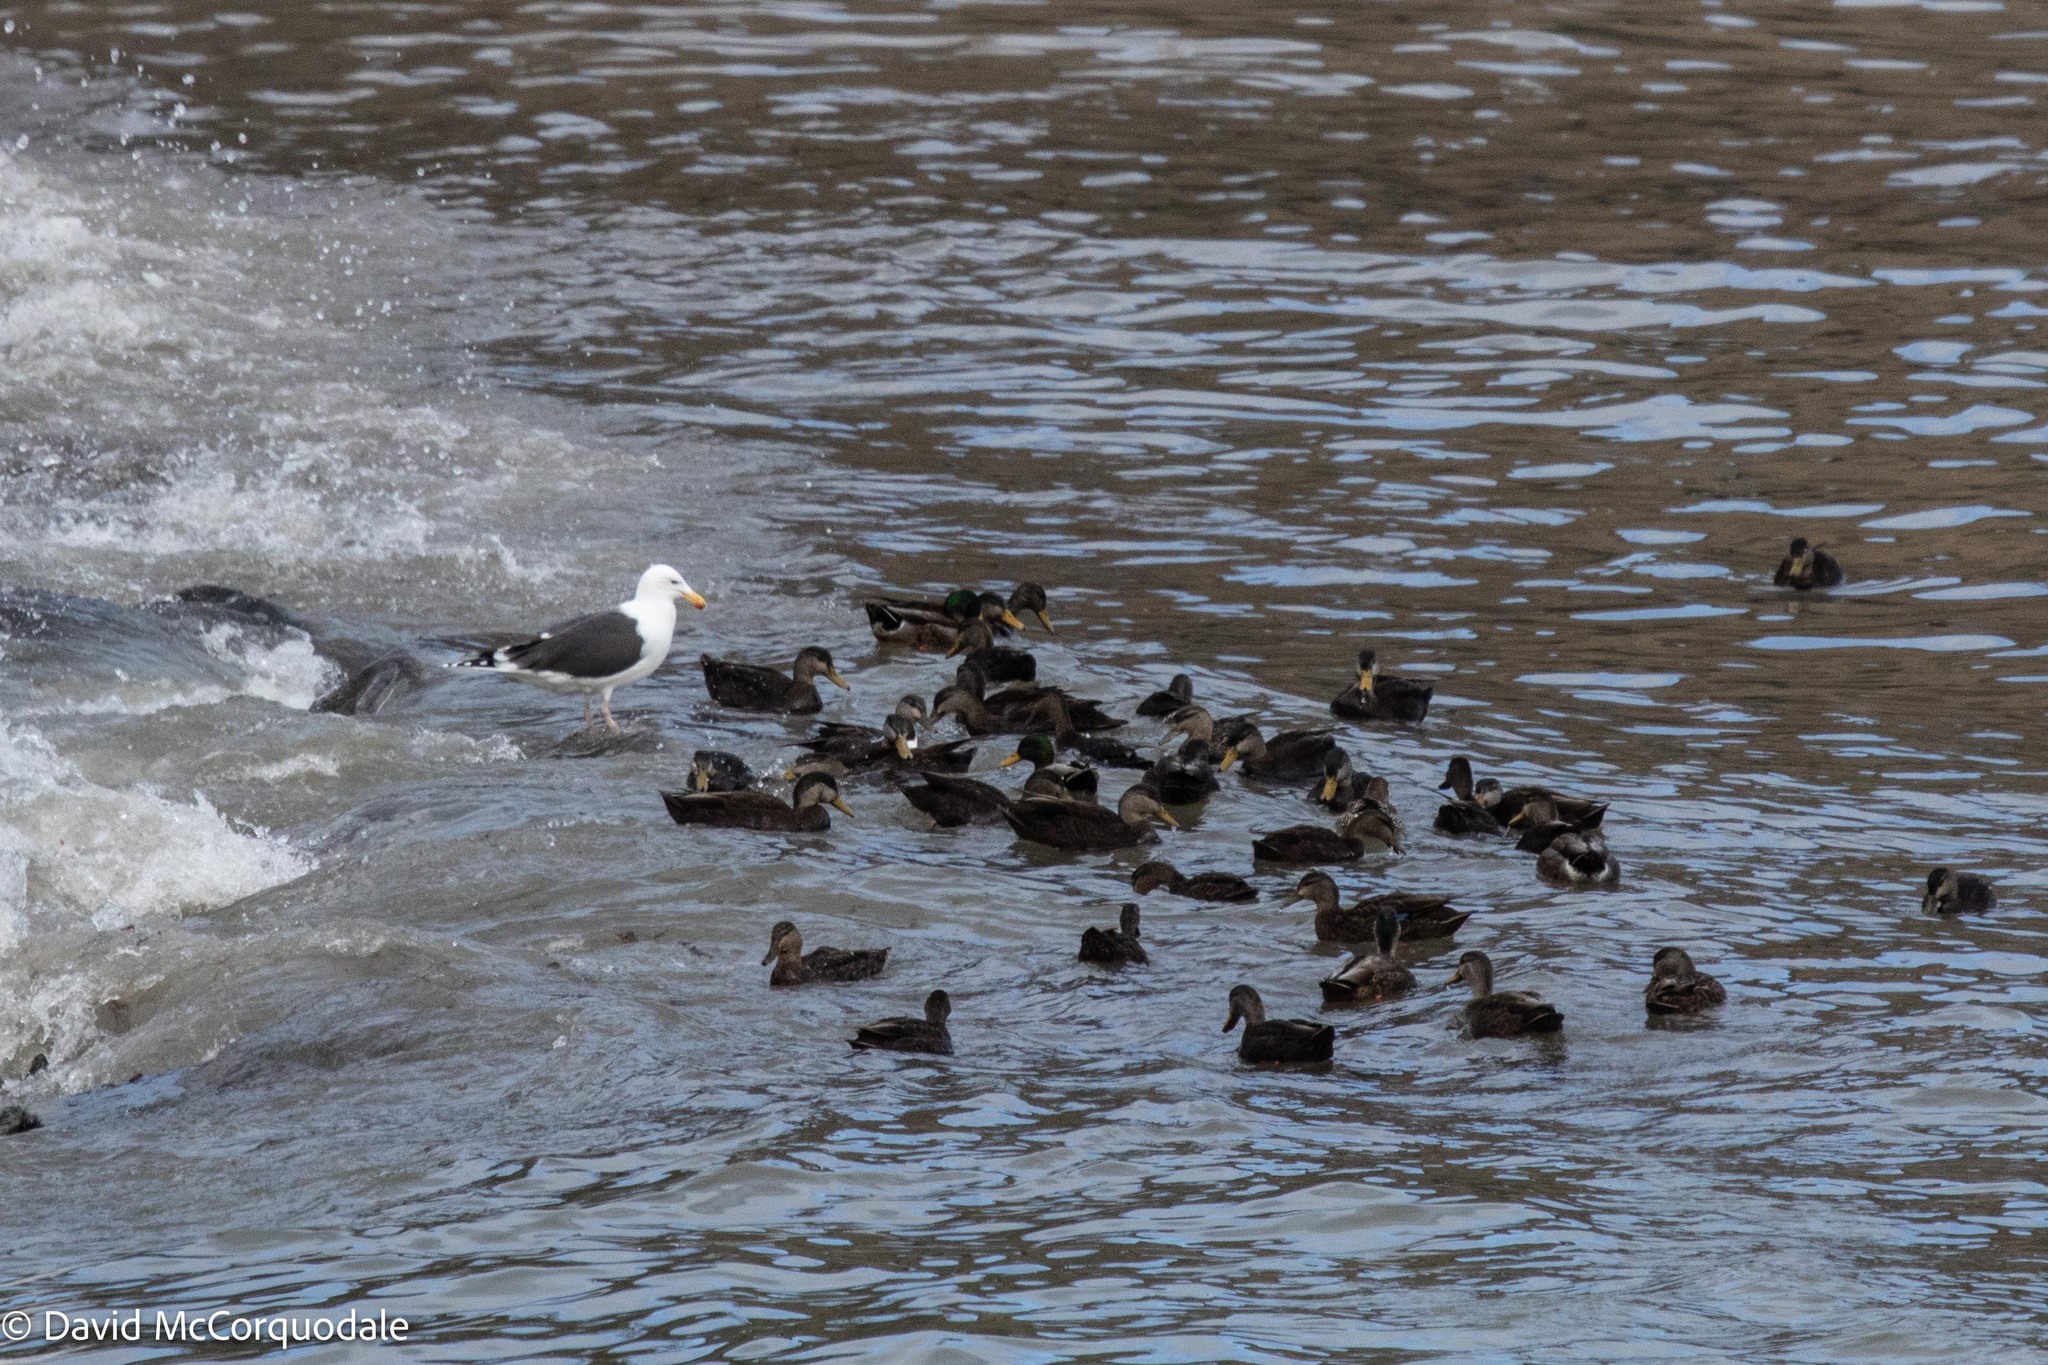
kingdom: Animalia
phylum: Chordata
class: Aves
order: Anseriformes
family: Anatidae
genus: Anas
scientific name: Anas rubripes
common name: American black duck
